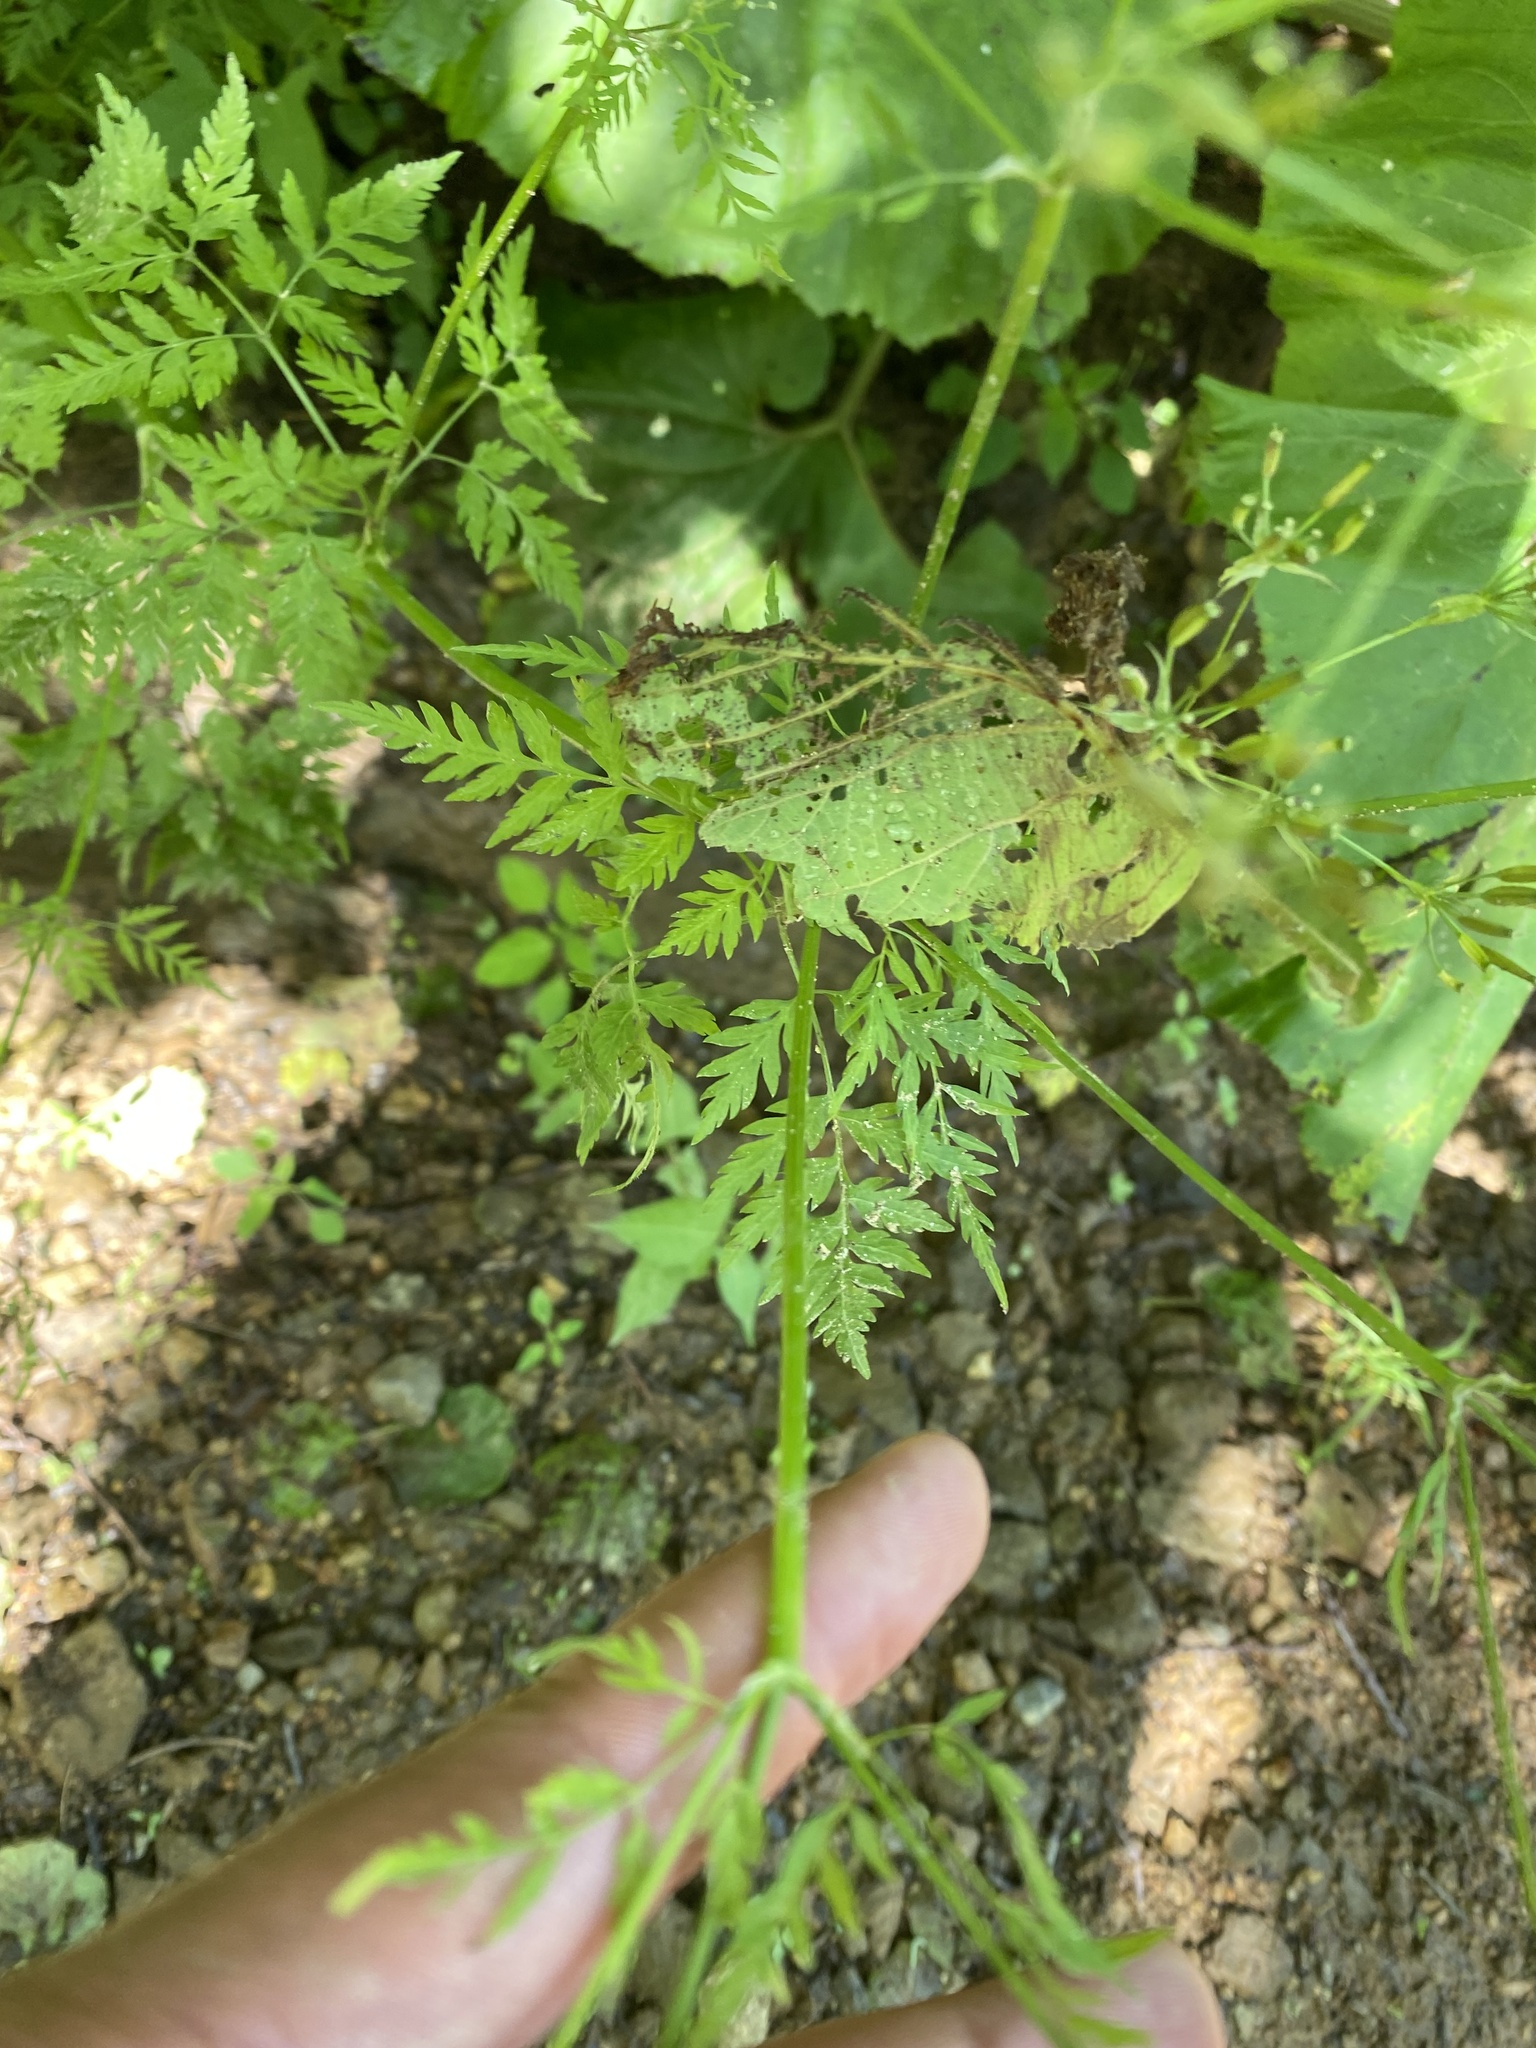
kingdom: Plantae
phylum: Tracheophyta
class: Magnoliopsida
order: Apiales
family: Apiaceae
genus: Anthriscus
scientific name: Anthriscus sylvestris
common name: Cow parsley
